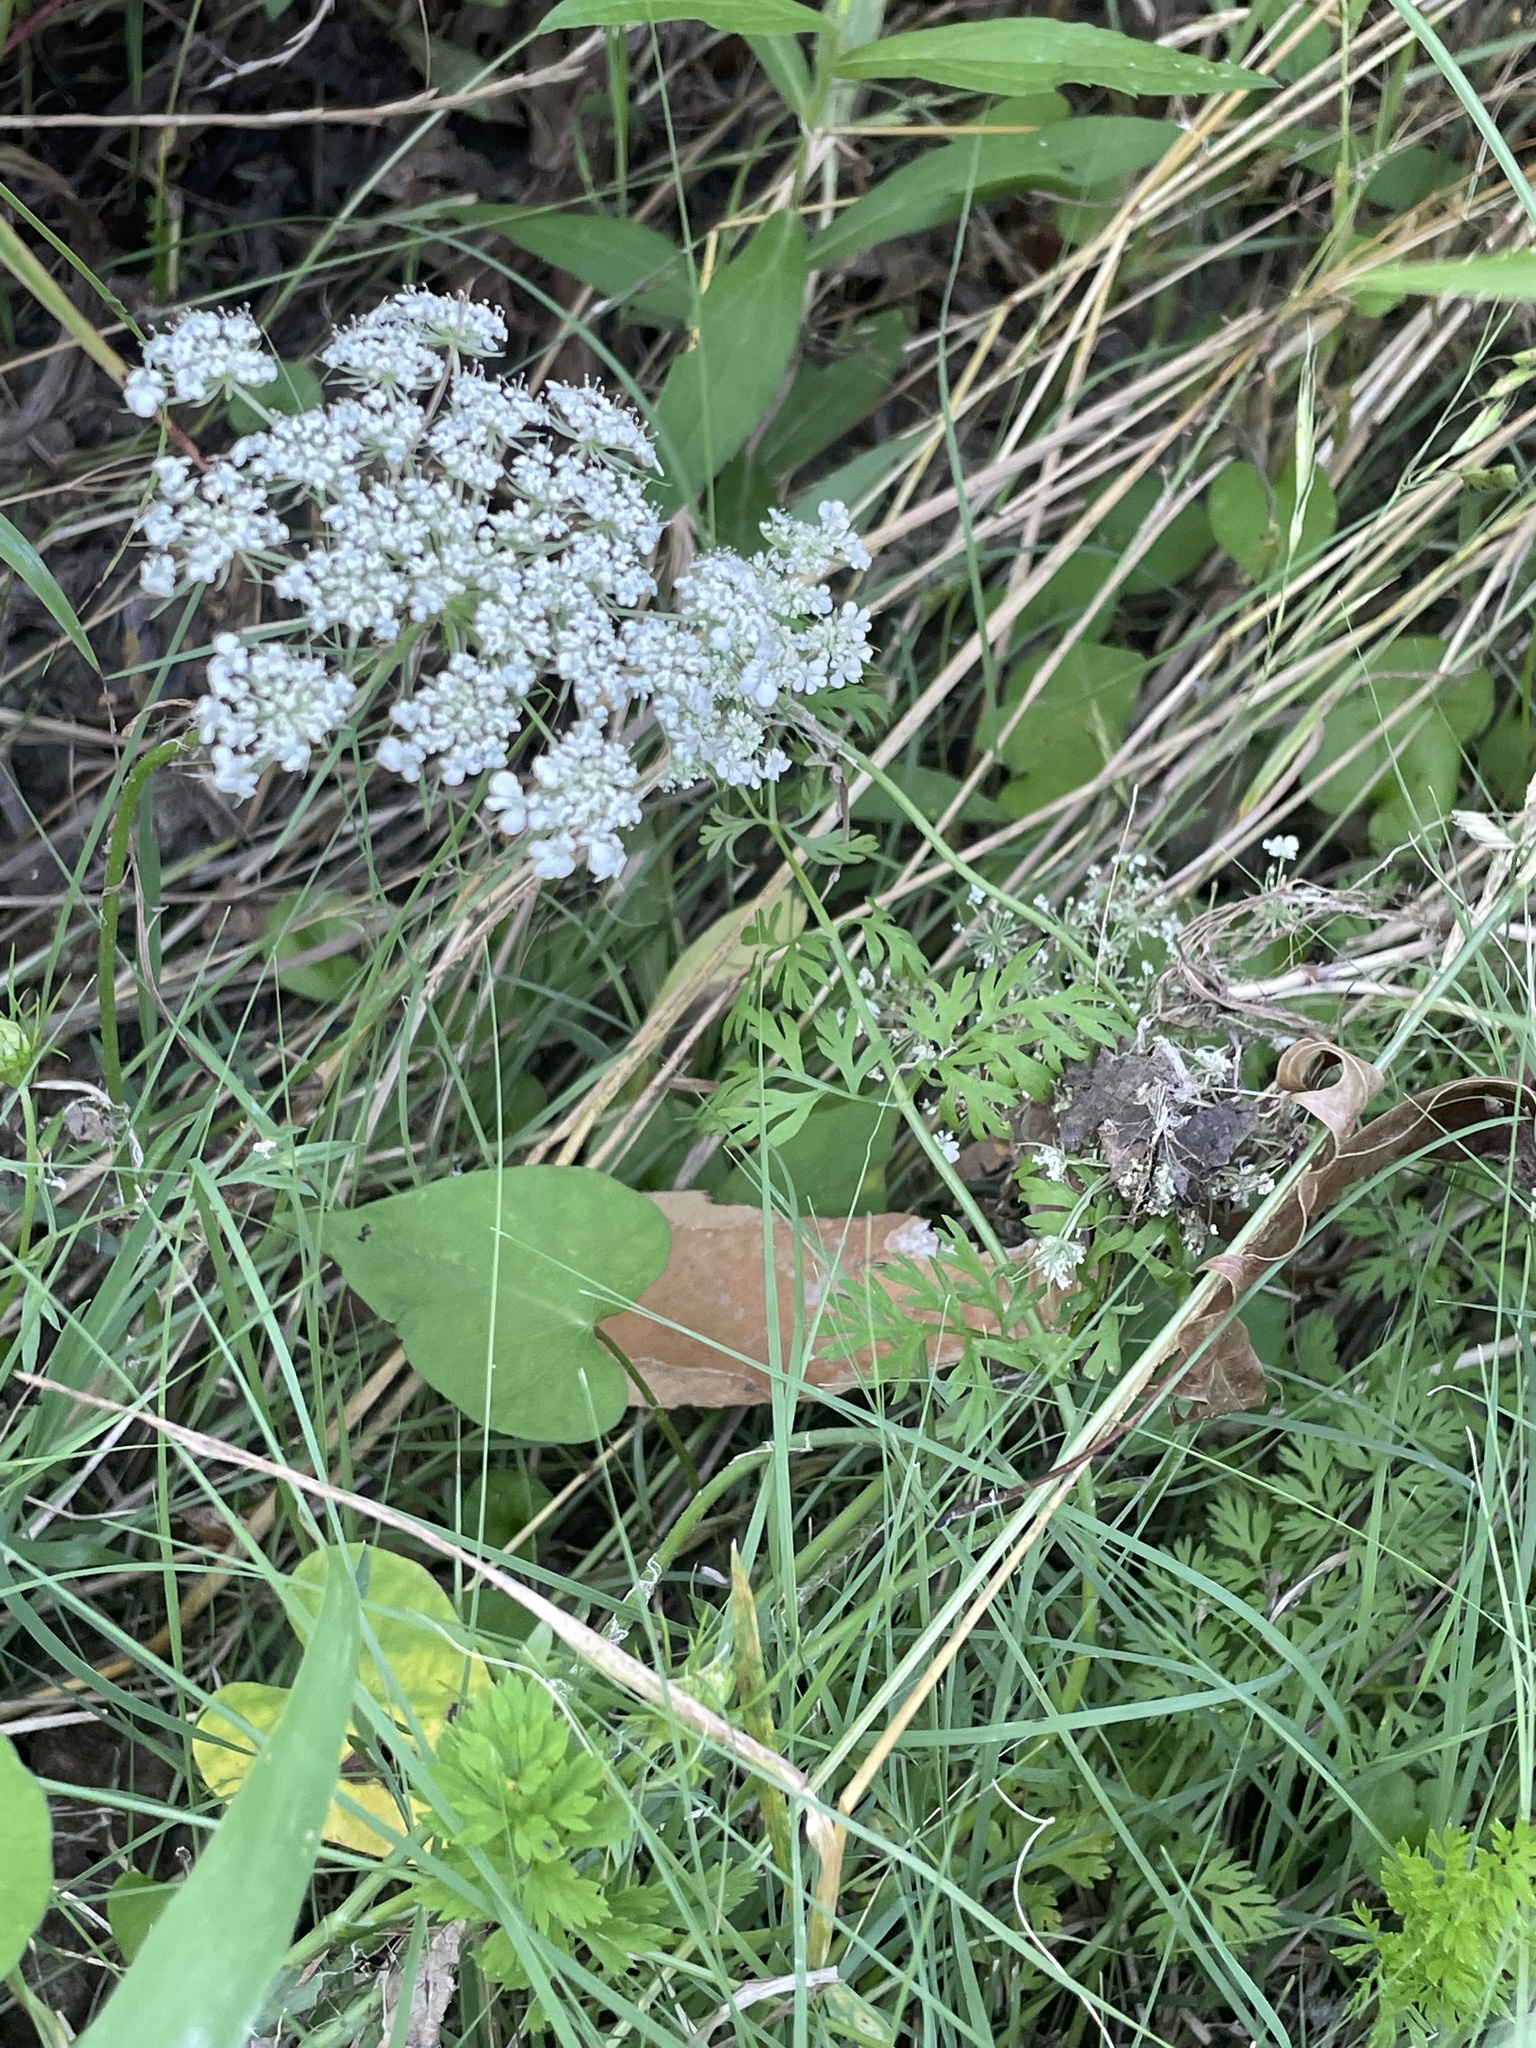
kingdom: Plantae
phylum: Tracheophyta
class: Magnoliopsida
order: Apiales
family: Apiaceae
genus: Daucus
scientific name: Daucus carota
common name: Wild carrot
